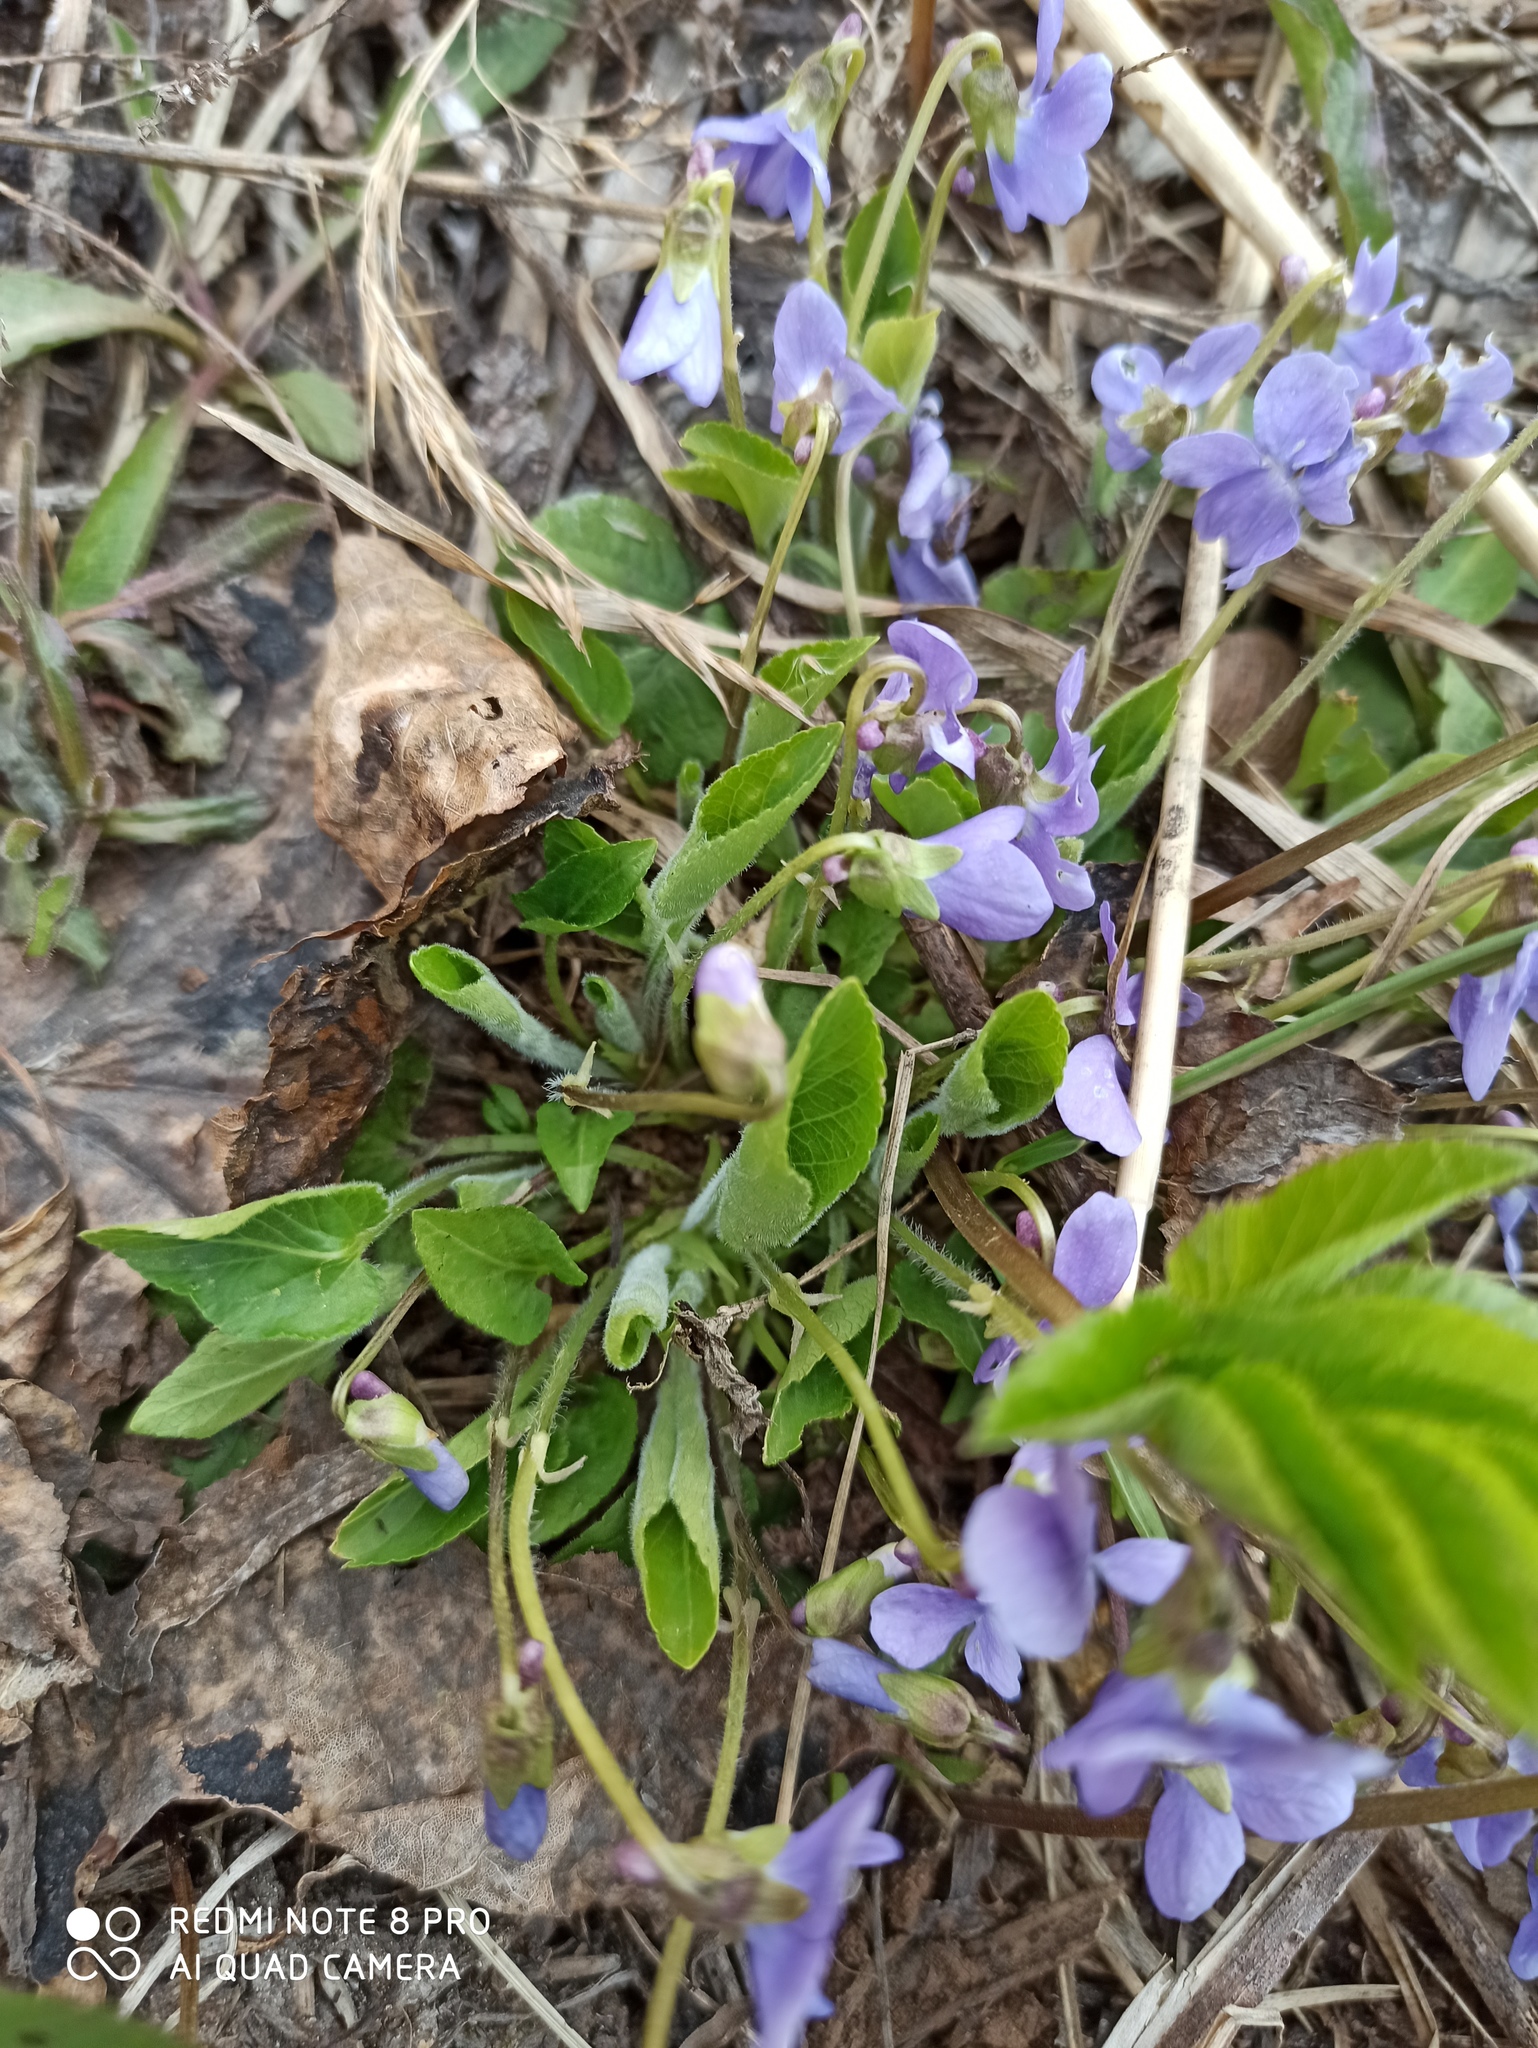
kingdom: Plantae
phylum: Tracheophyta
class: Magnoliopsida
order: Malpighiales
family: Violaceae
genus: Viola
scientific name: Viola hirta
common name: Hairy violet
